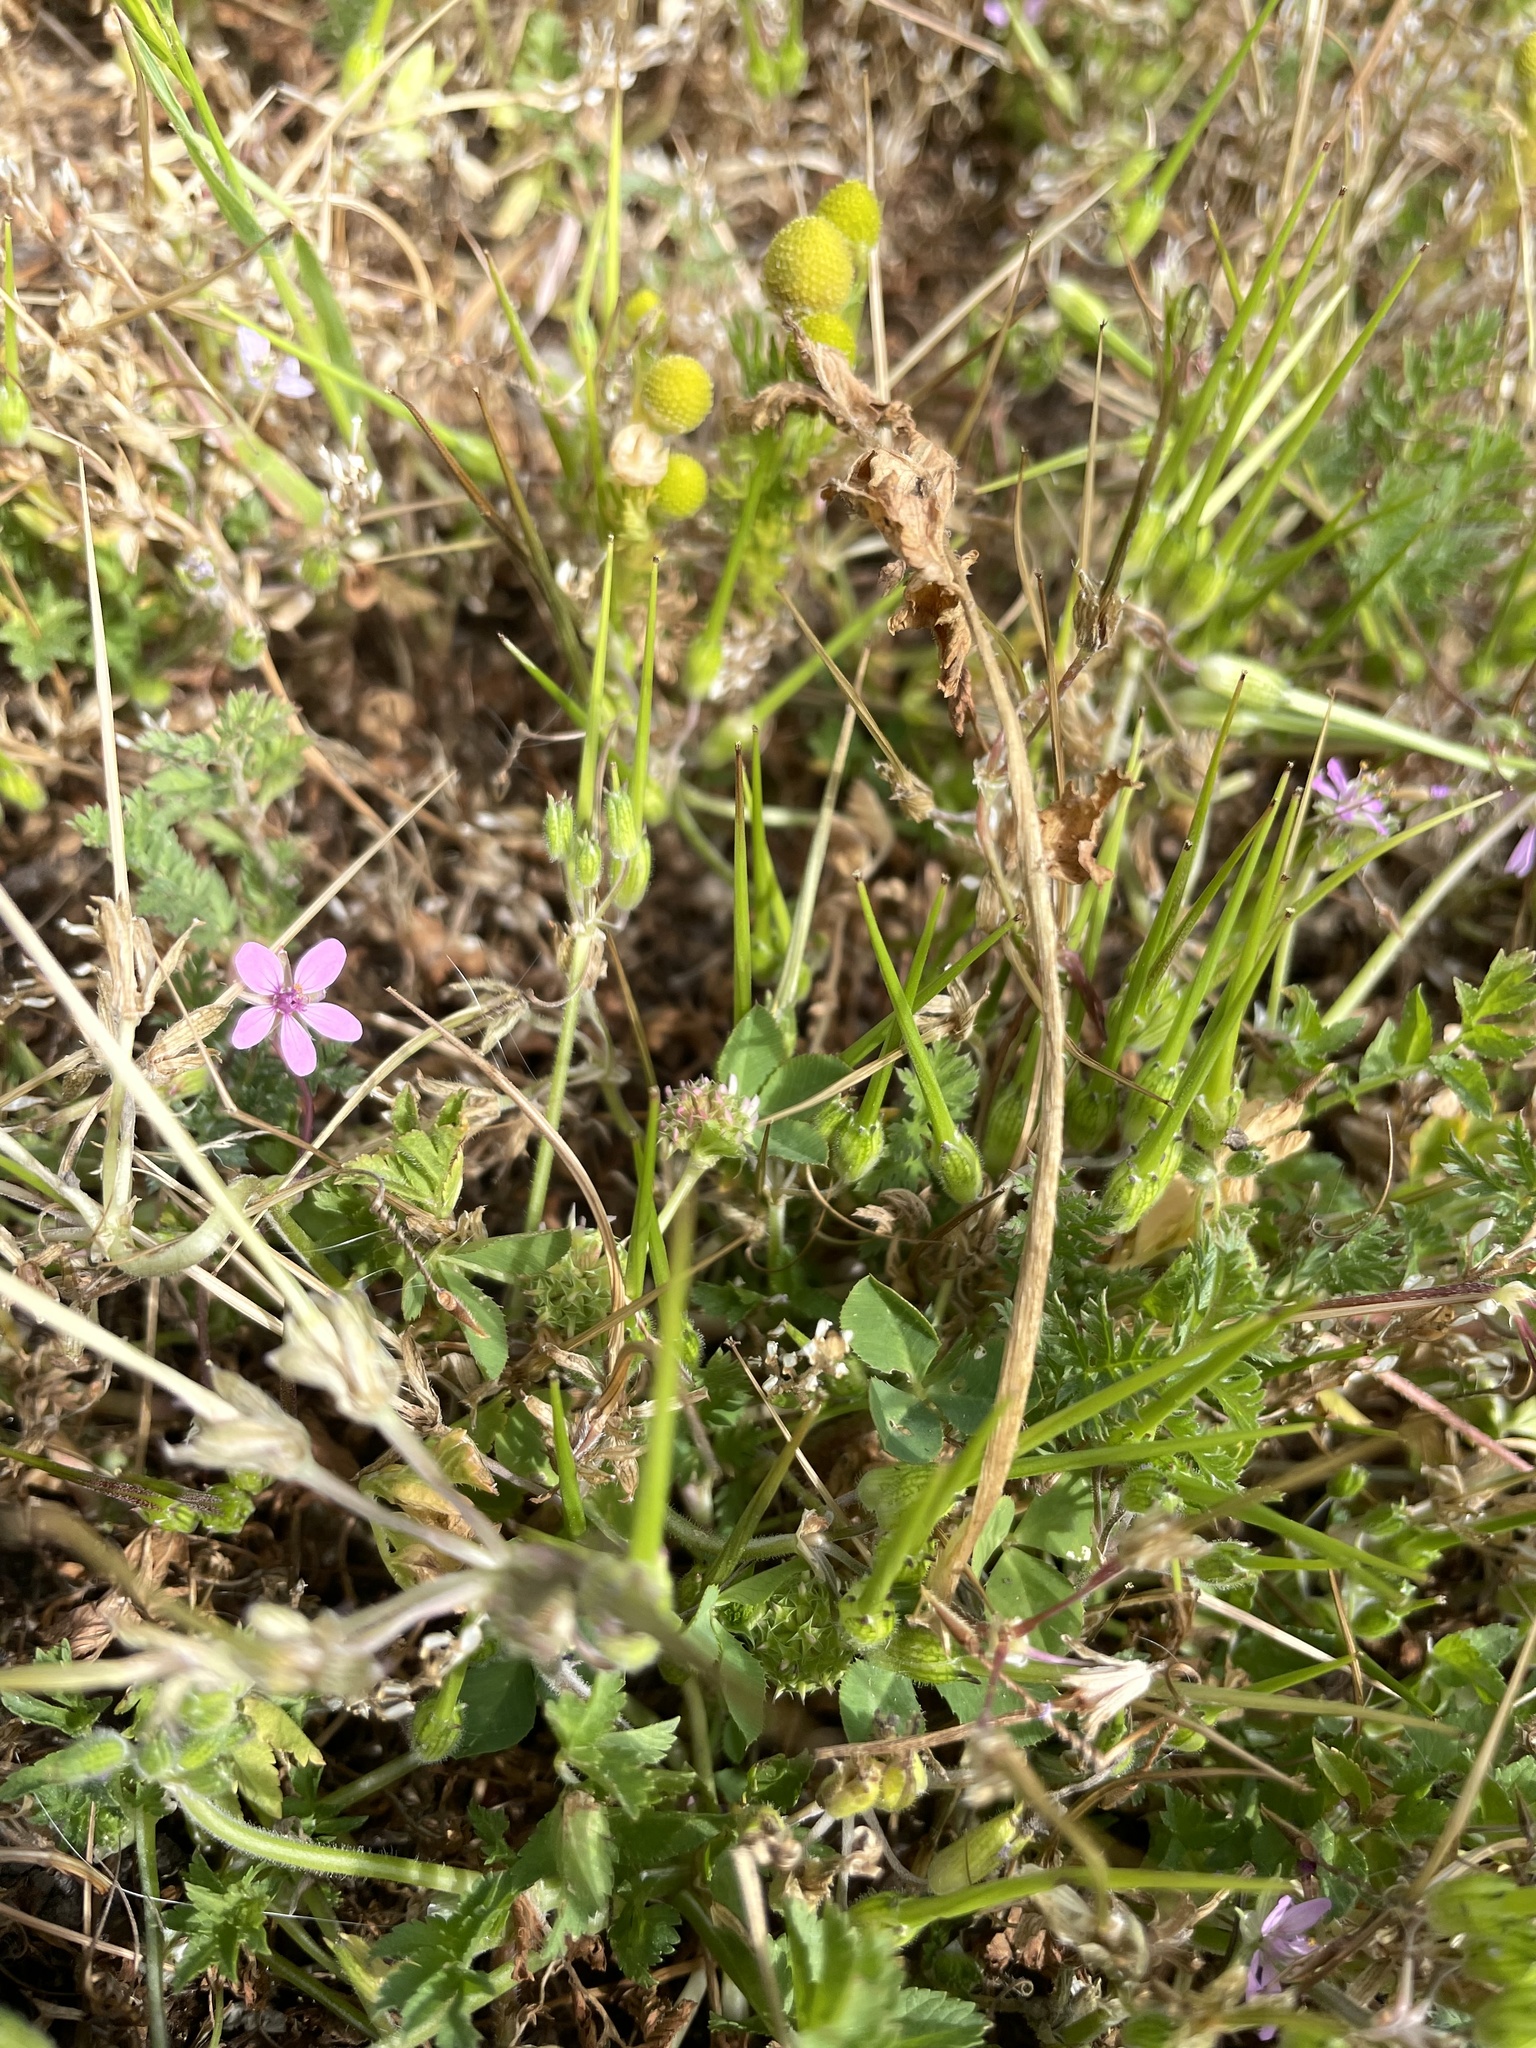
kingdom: Plantae
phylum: Tracheophyta
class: Magnoliopsida
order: Geraniales
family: Geraniaceae
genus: Erodium
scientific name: Erodium cicutarium
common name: Common stork's-bill
